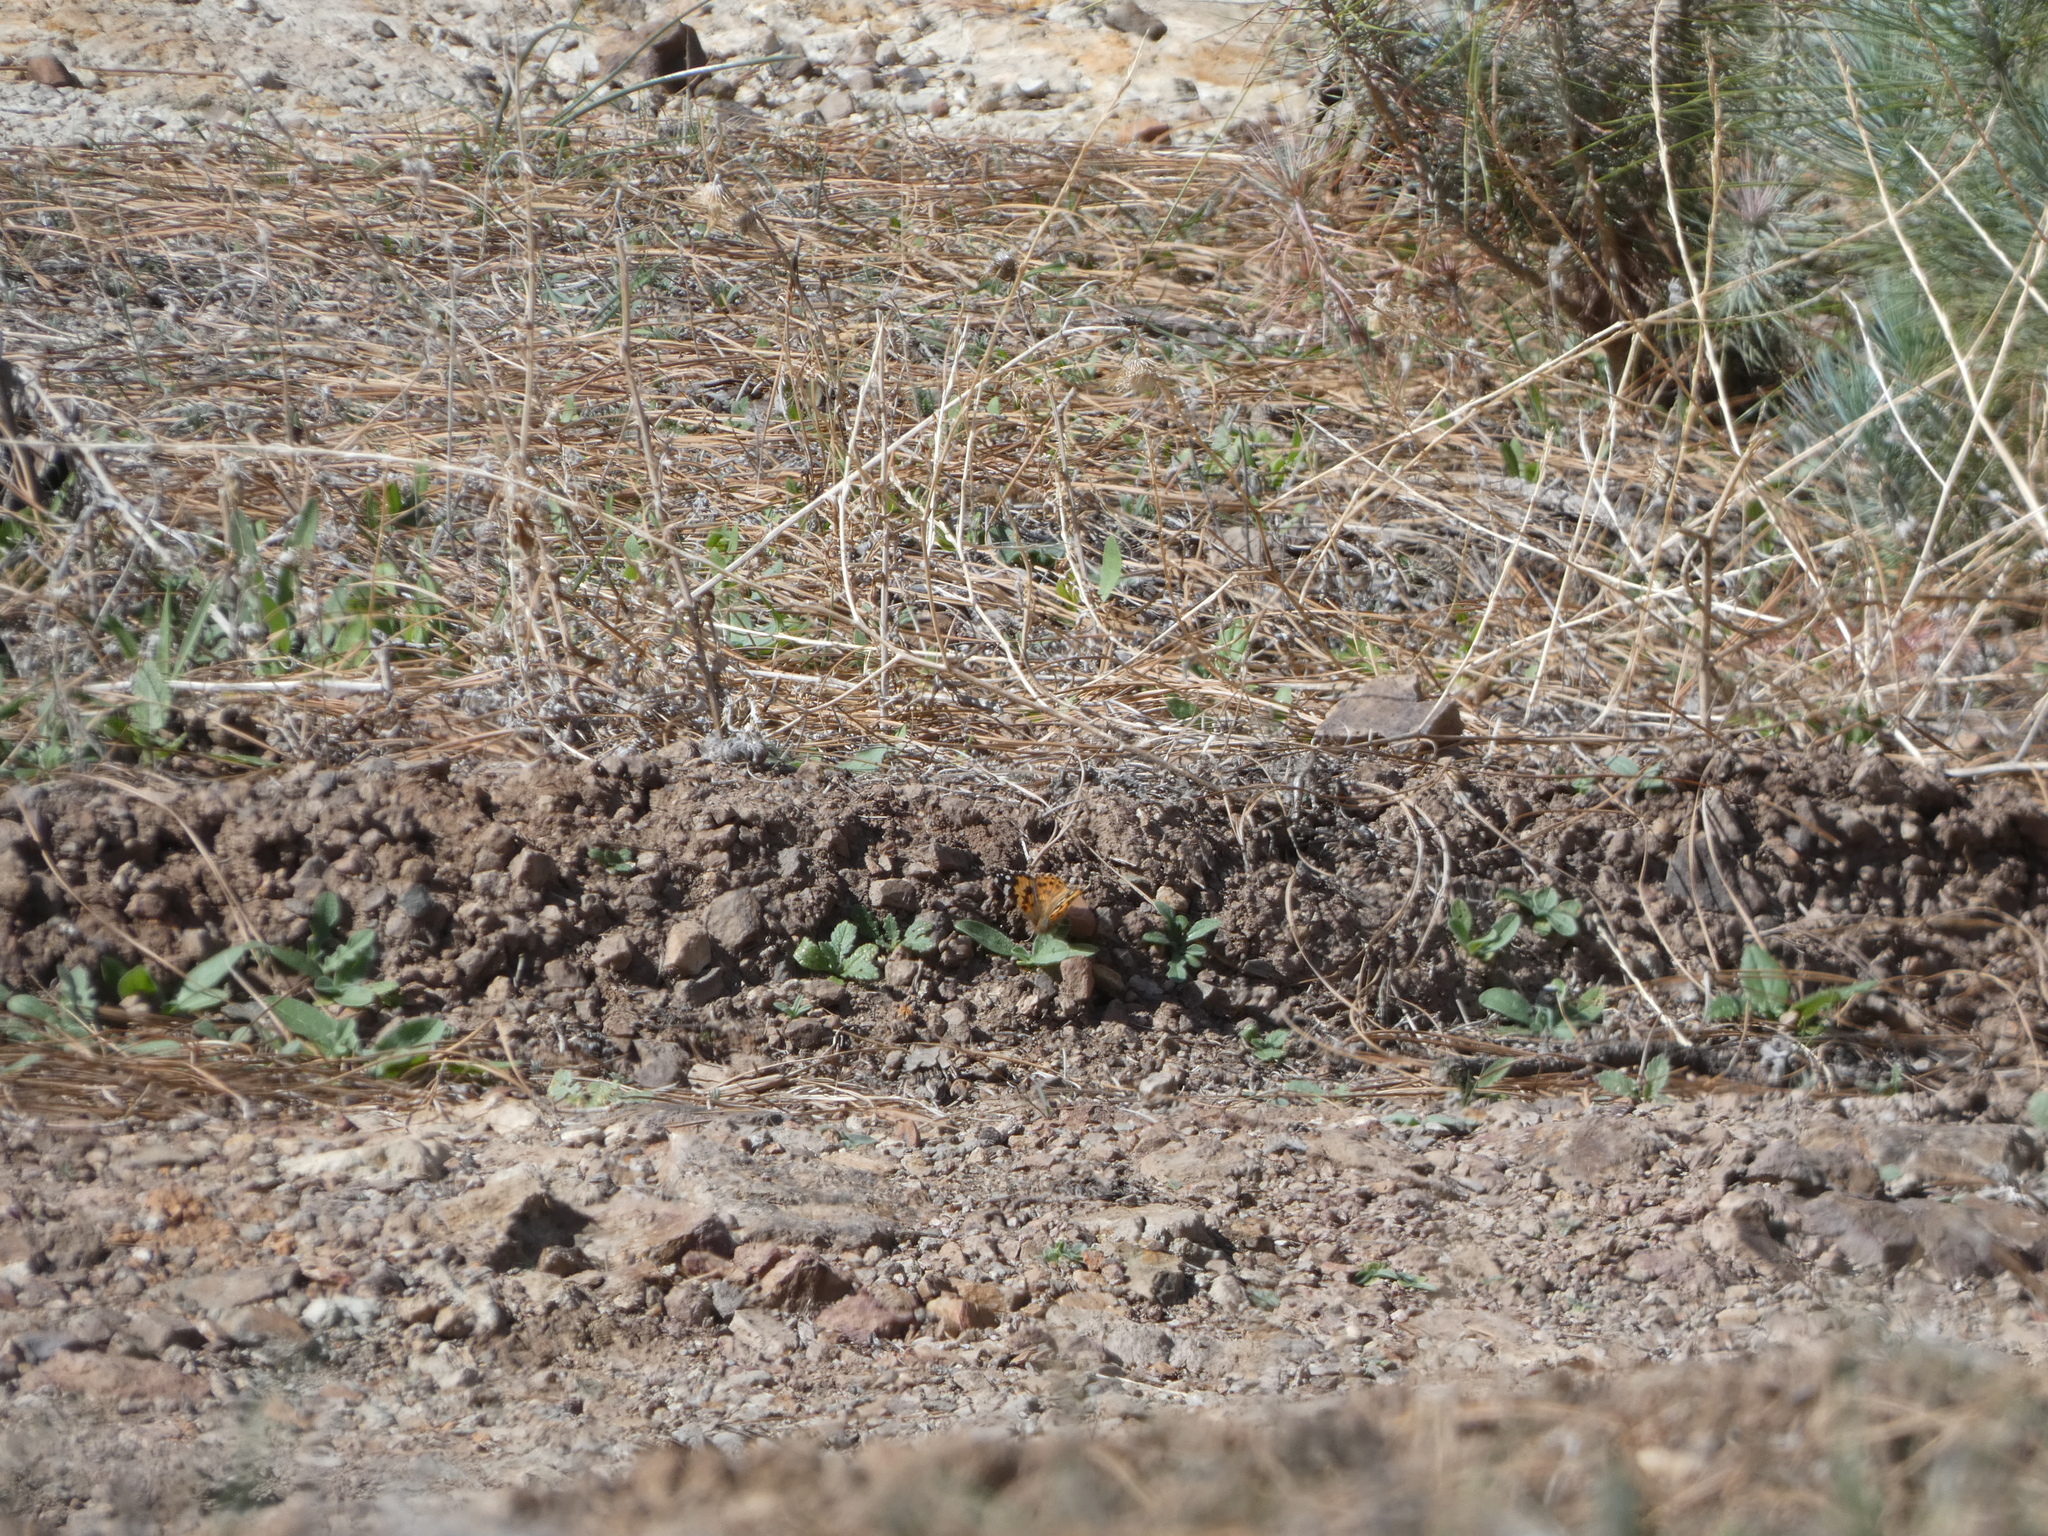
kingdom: Animalia
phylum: Arthropoda
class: Insecta
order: Lepidoptera
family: Nymphalidae
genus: Vanessa
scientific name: Vanessa cardui
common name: Painted lady
